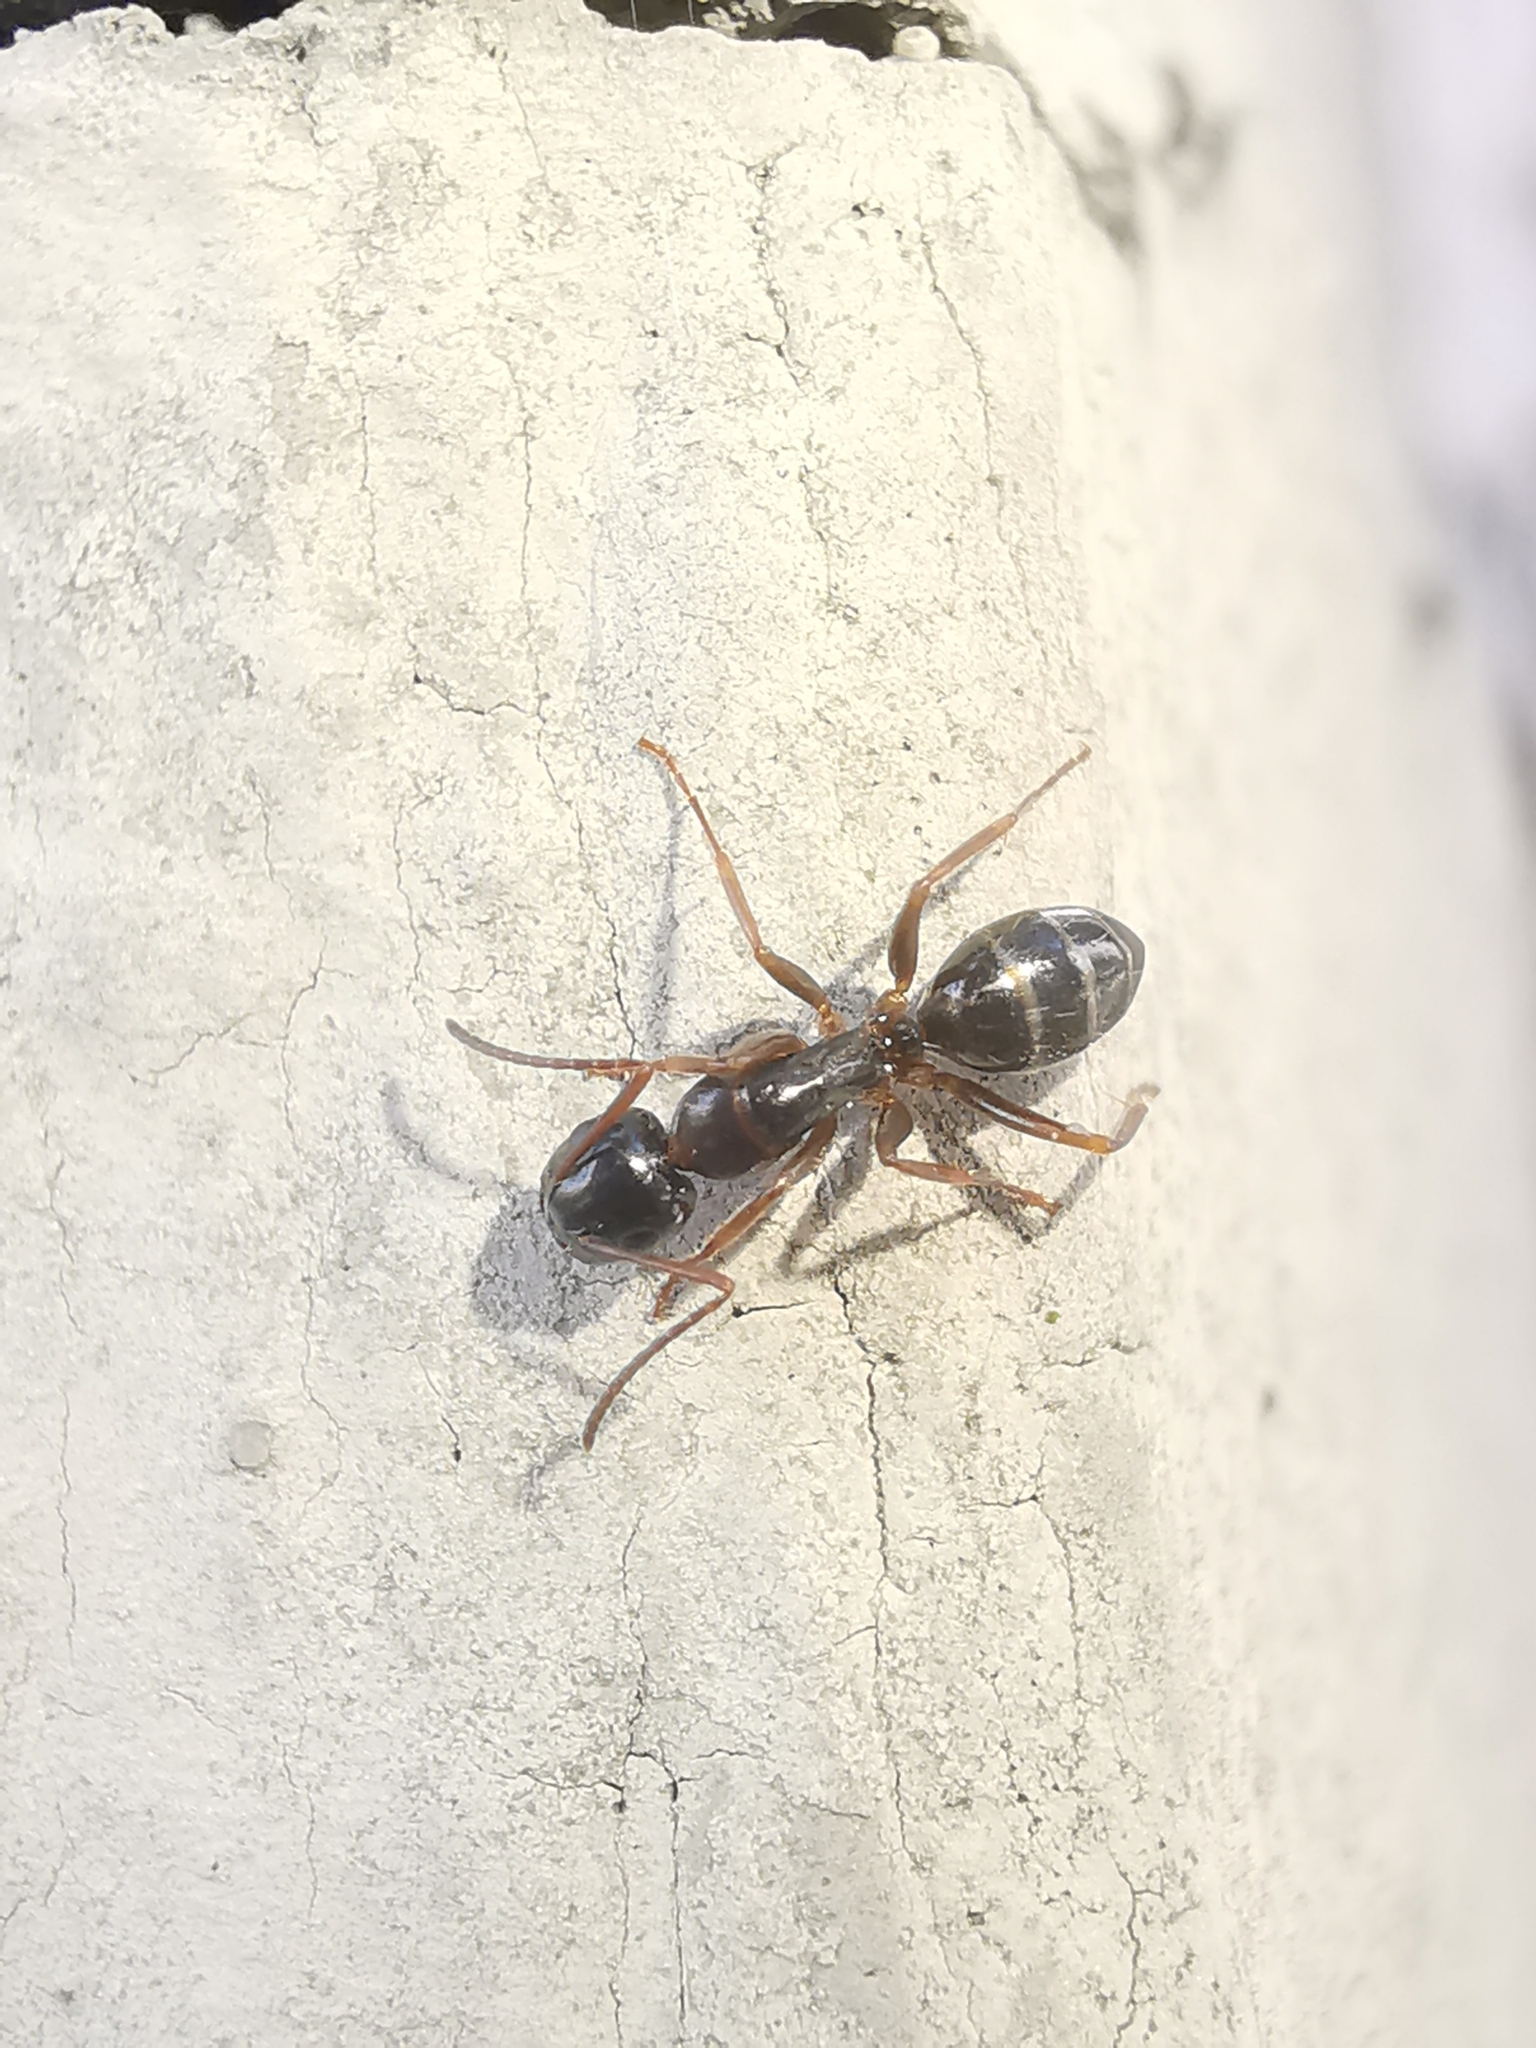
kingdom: Animalia
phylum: Arthropoda
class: Insecta
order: Hymenoptera
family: Formicidae
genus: Camponotus
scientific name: Camponotus fallax
